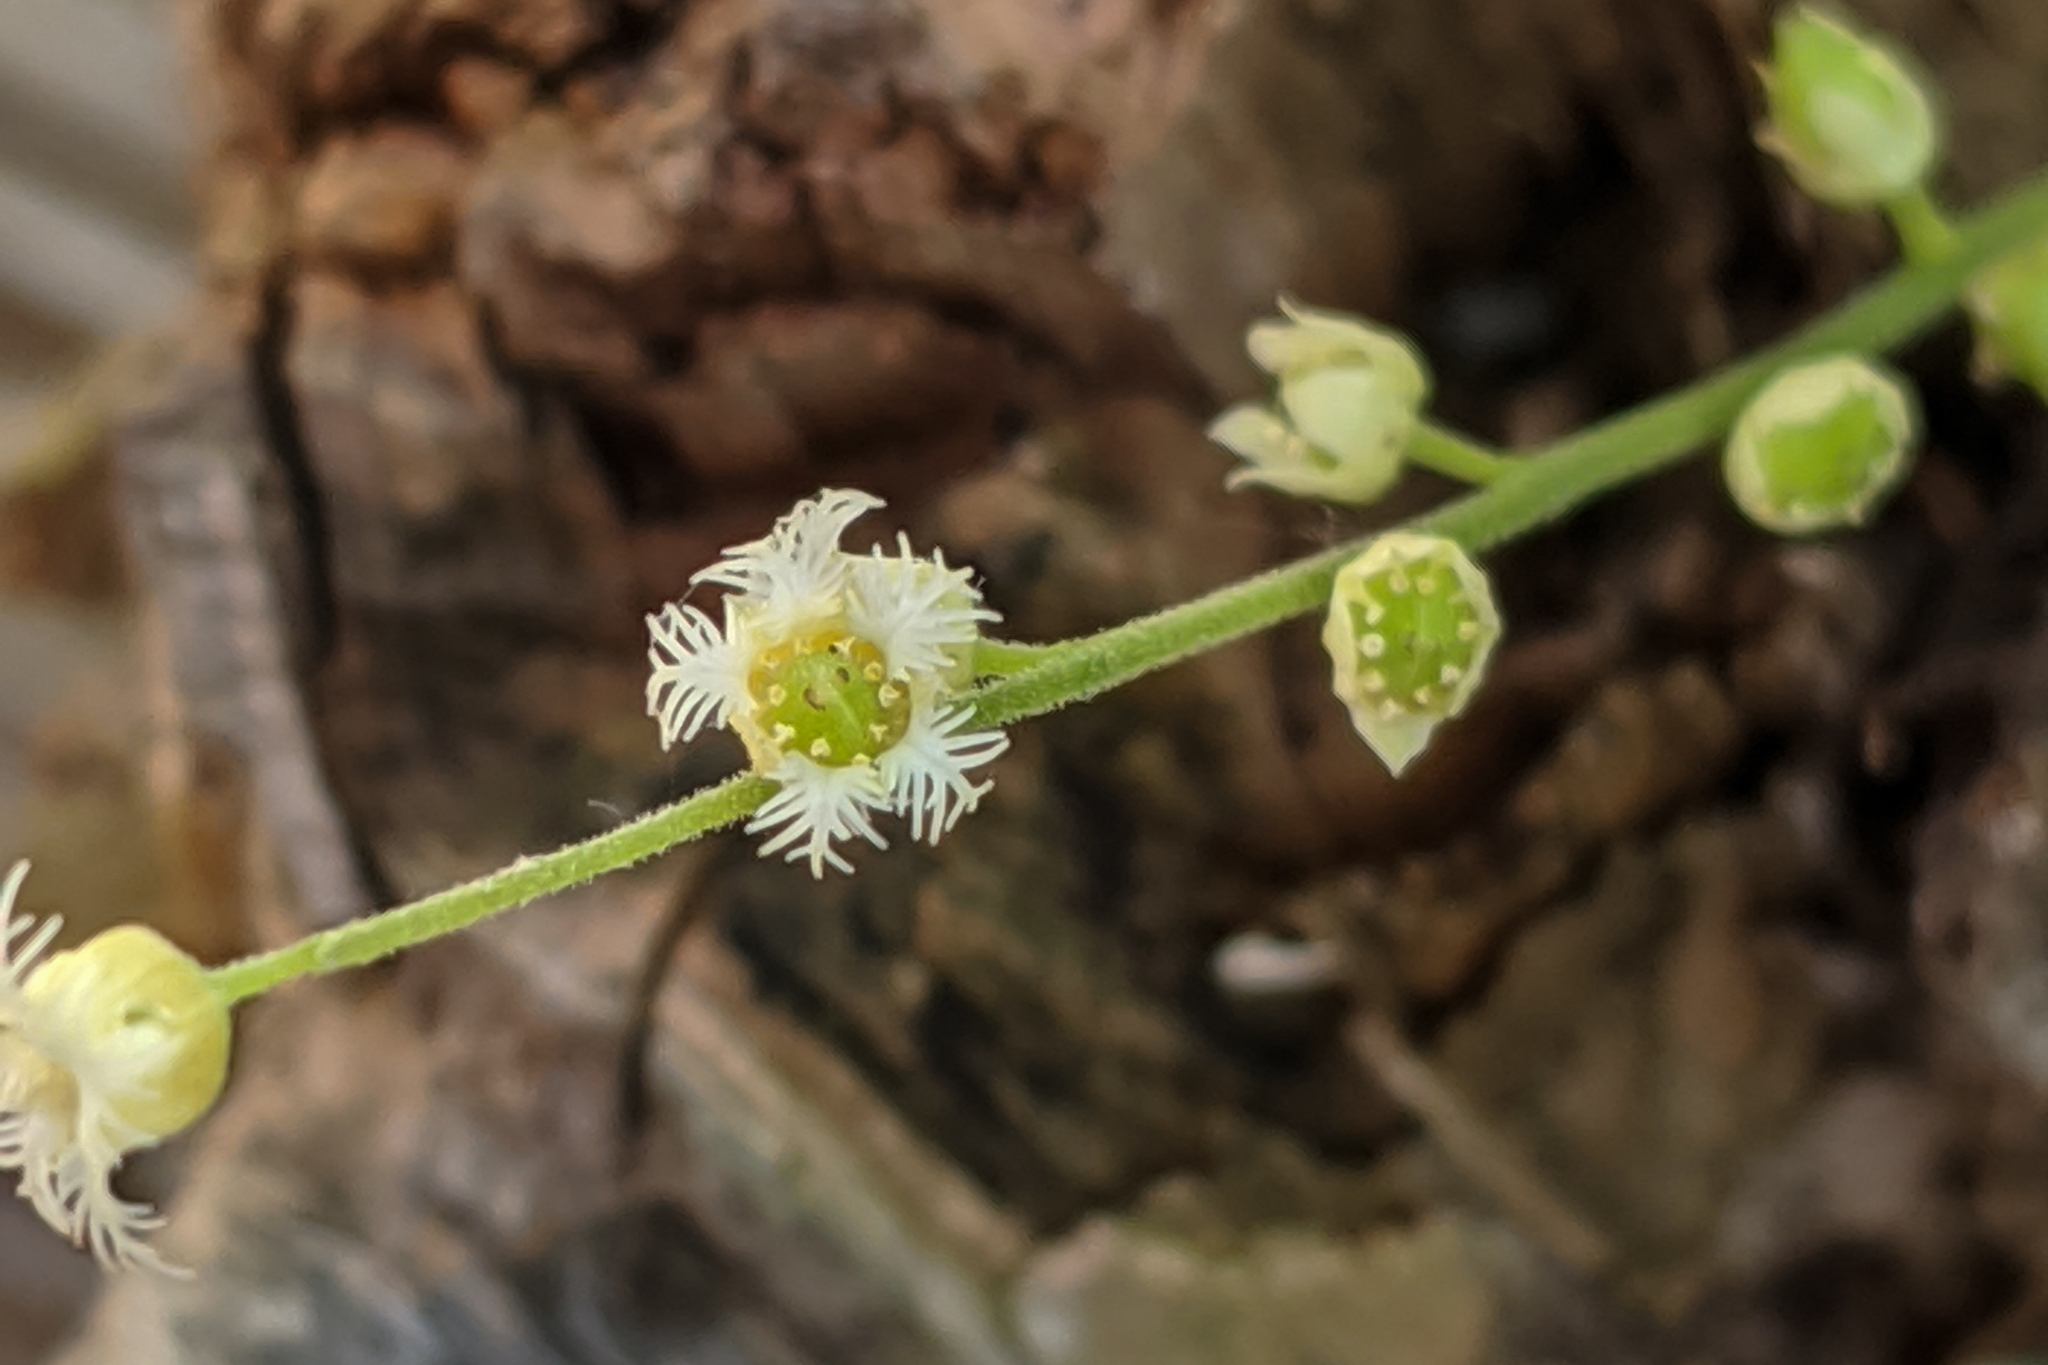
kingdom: Plantae
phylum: Tracheophyta
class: Magnoliopsida
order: Saxifragales
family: Saxifragaceae
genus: Mitella
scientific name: Mitella diphylla
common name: Coolwort
